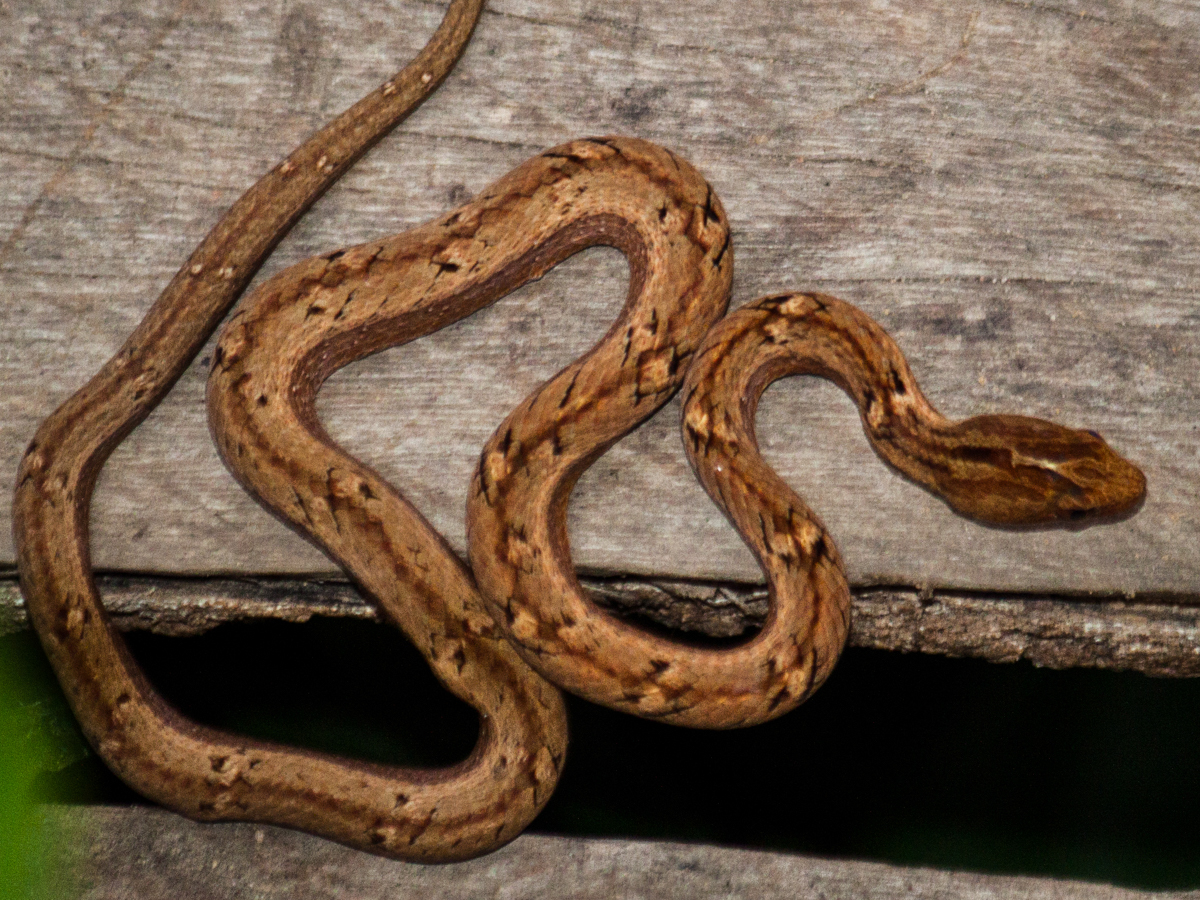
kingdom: Animalia
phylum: Chordata
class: Squamata
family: Pseudaspididae
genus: Psammodynastes
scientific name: Psammodynastes pulverulentus
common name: Common mock viper
